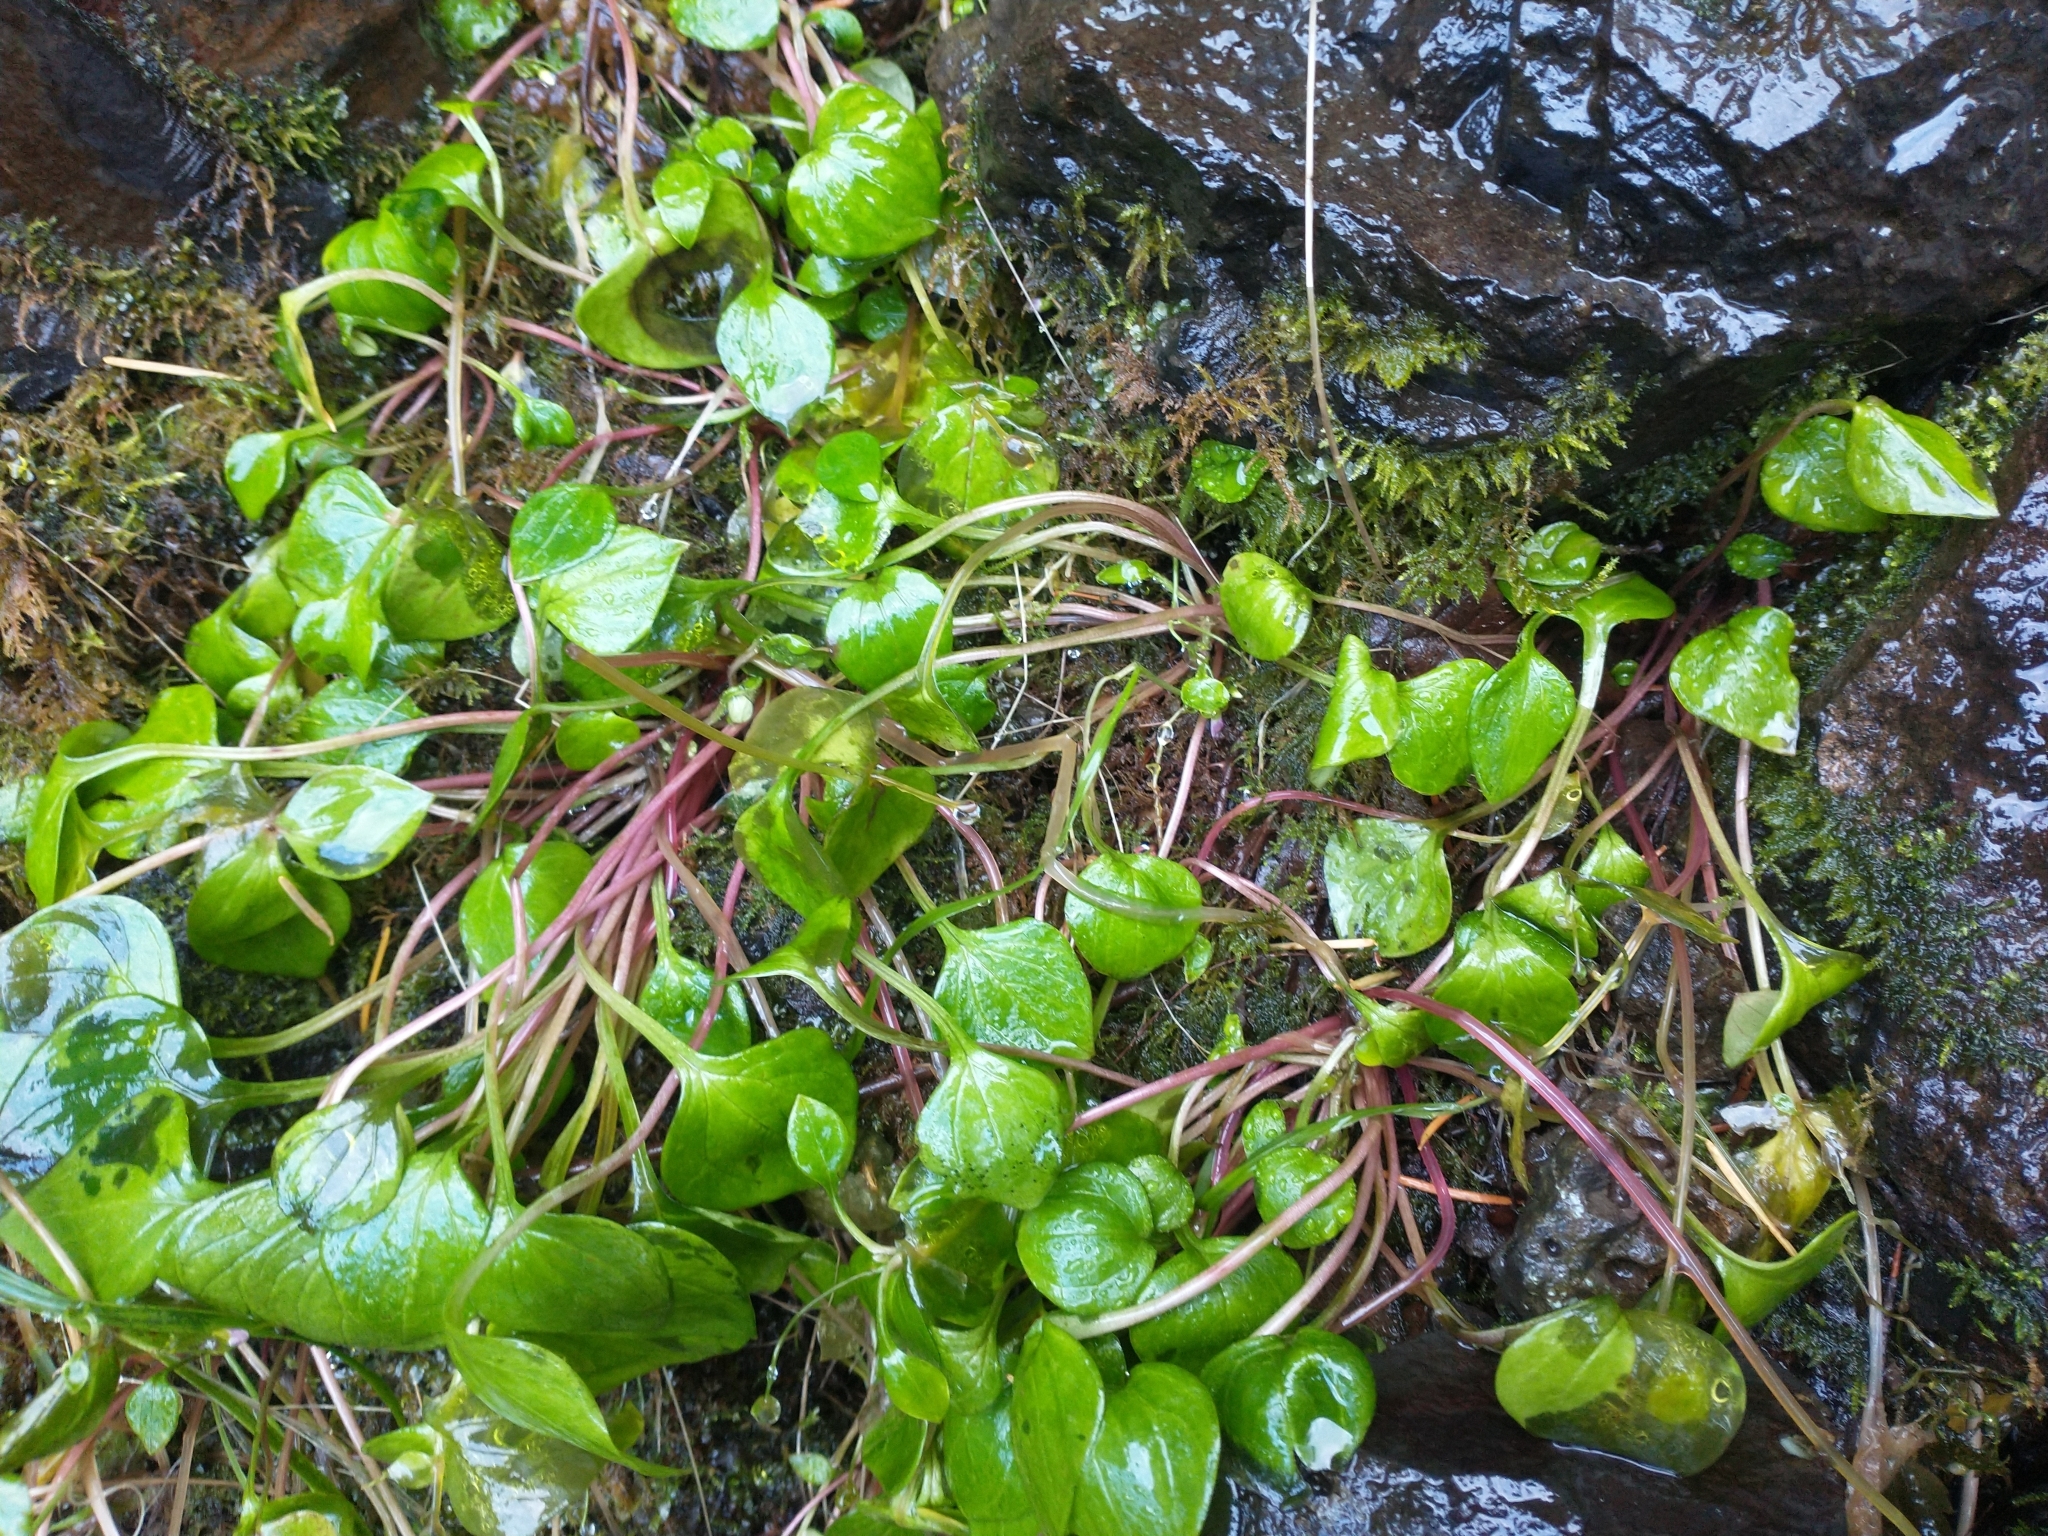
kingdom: Plantae
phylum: Tracheophyta
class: Magnoliopsida
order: Caryophyllales
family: Montiaceae
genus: Claytonia
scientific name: Claytonia sibirica
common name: Pink purslane
